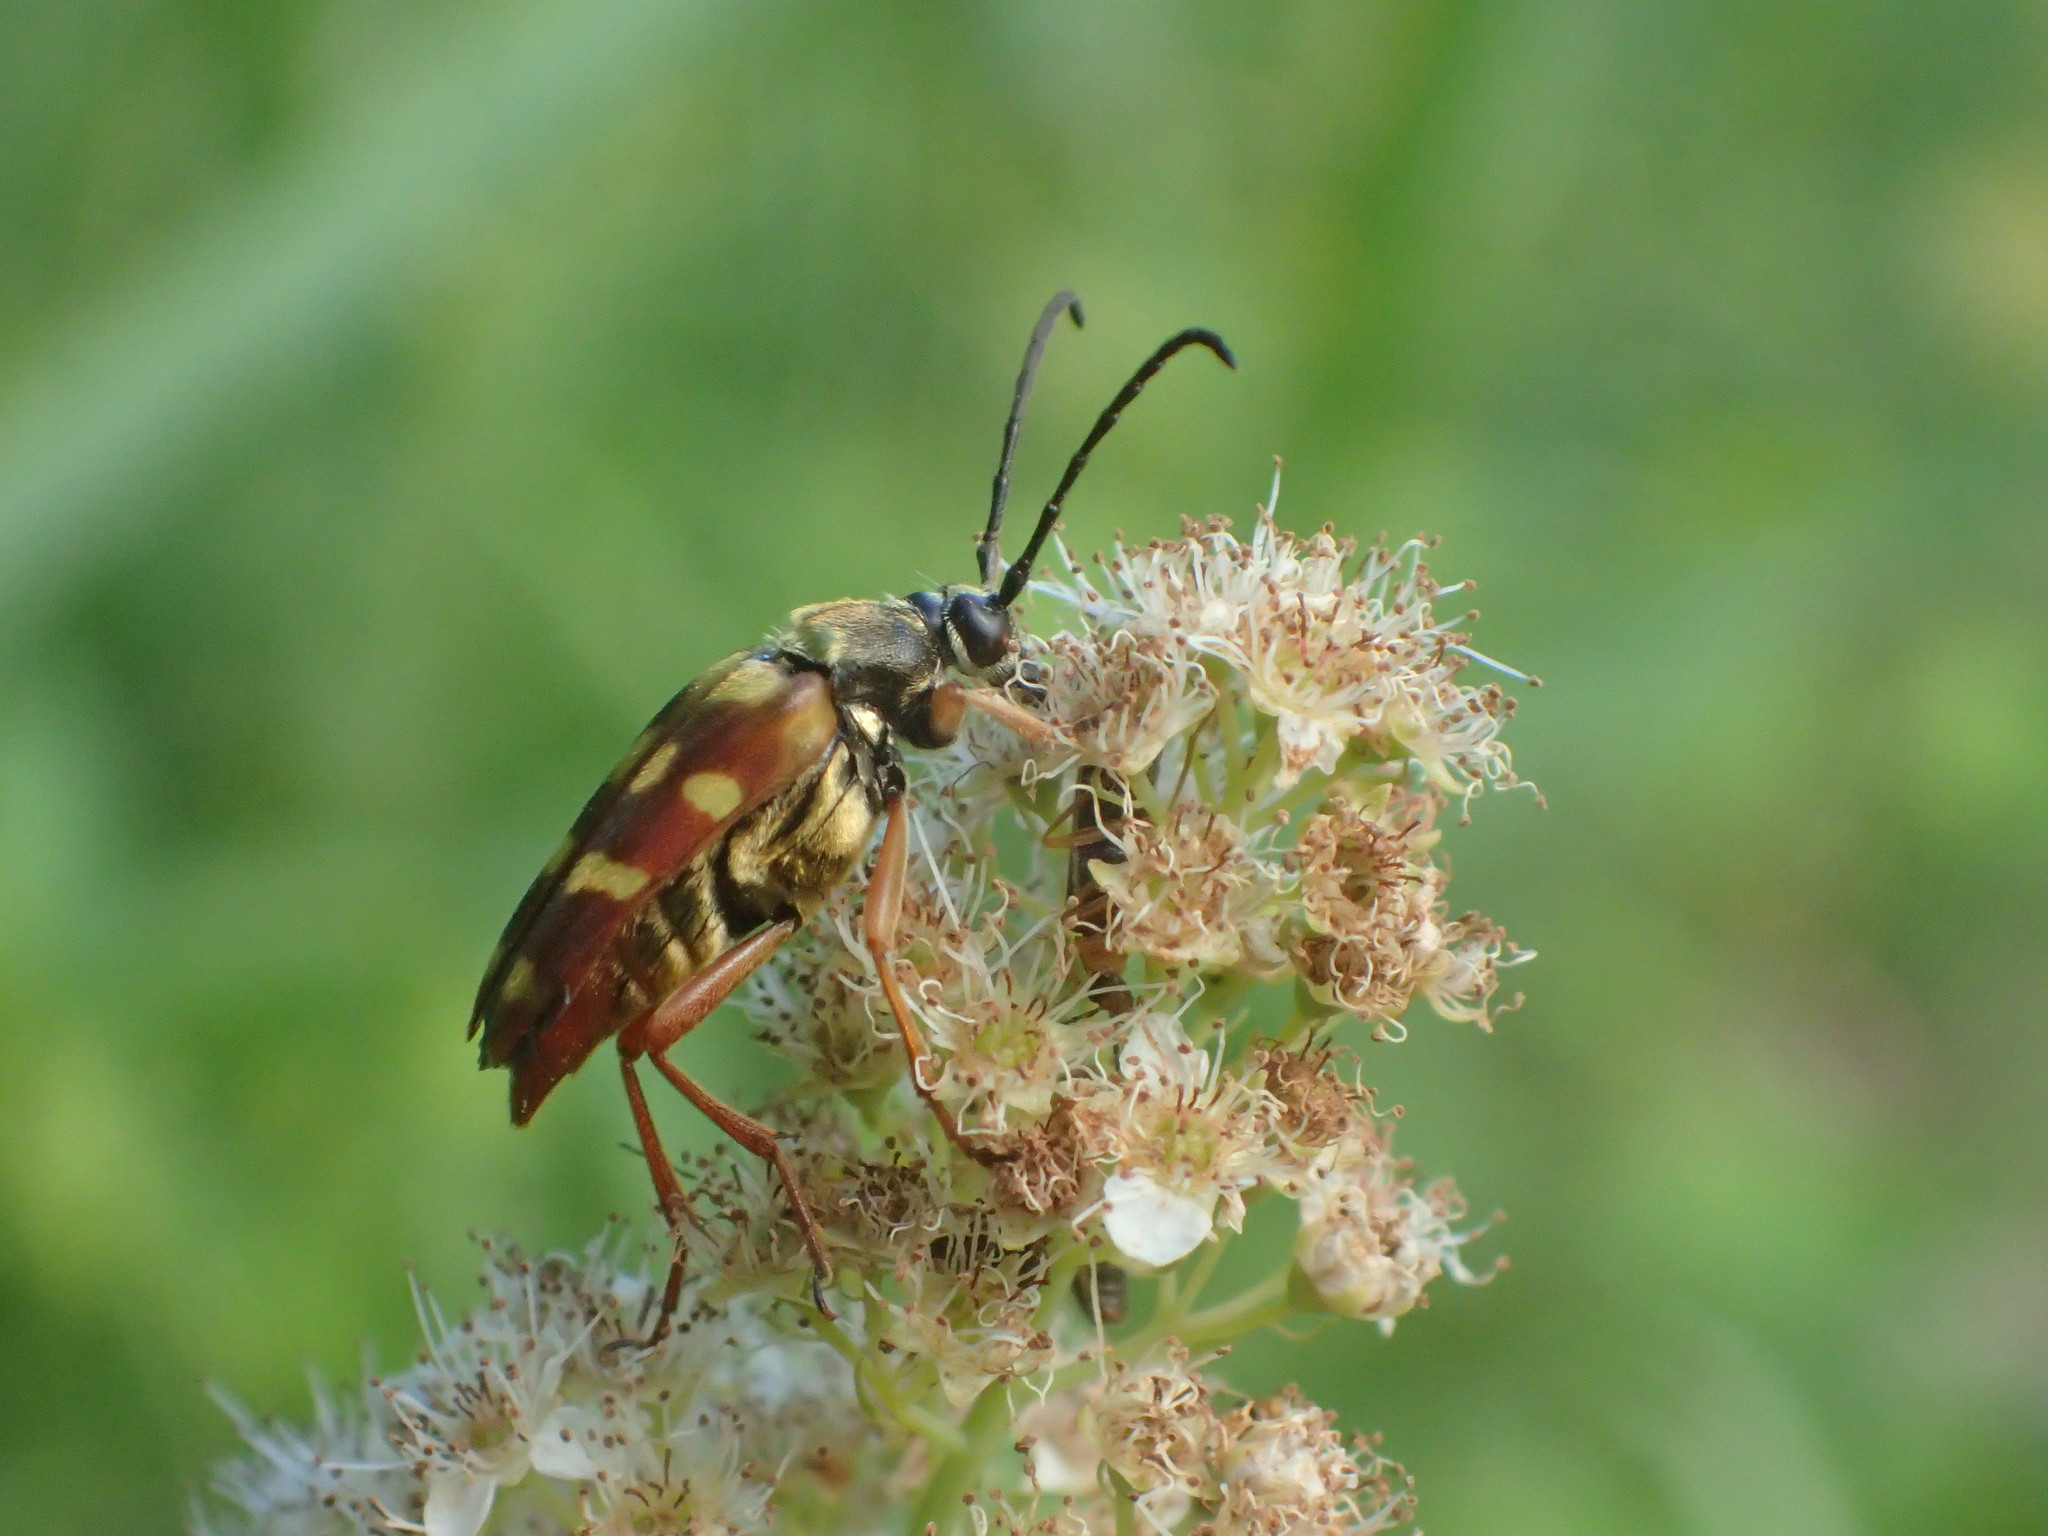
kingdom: Animalia
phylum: Arthropoda
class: Insecta
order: Coleoptera
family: Cerambycidae
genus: Typocerus
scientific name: Typocerus velutinus
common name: Banded longhorn beetle
